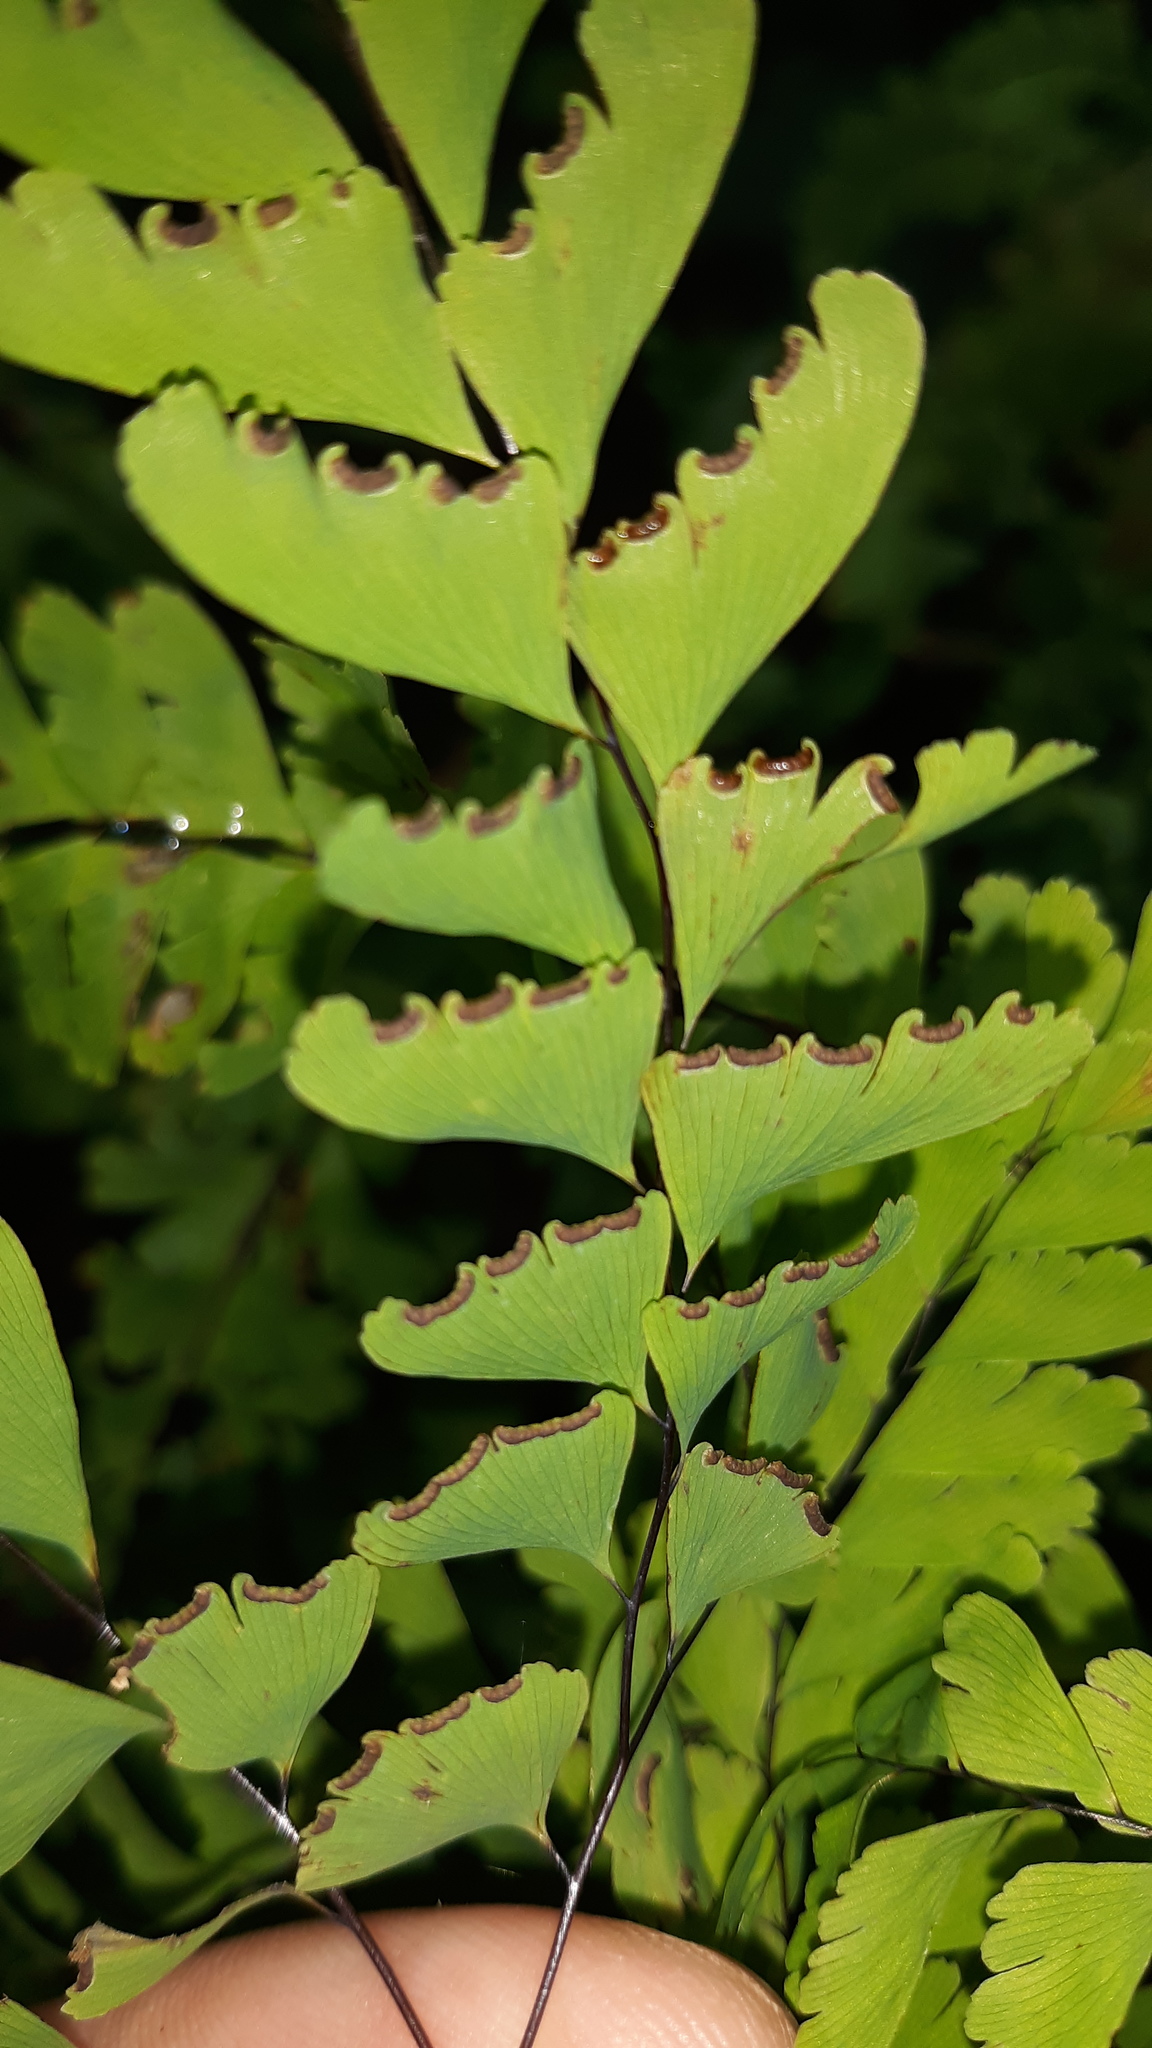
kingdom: Plantae
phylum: Tracheophyta
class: Polypodiopsida
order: Polypodiales
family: Pteridaceae
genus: Adiantum
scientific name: Adiantum pedatum
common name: Five-finger fern
